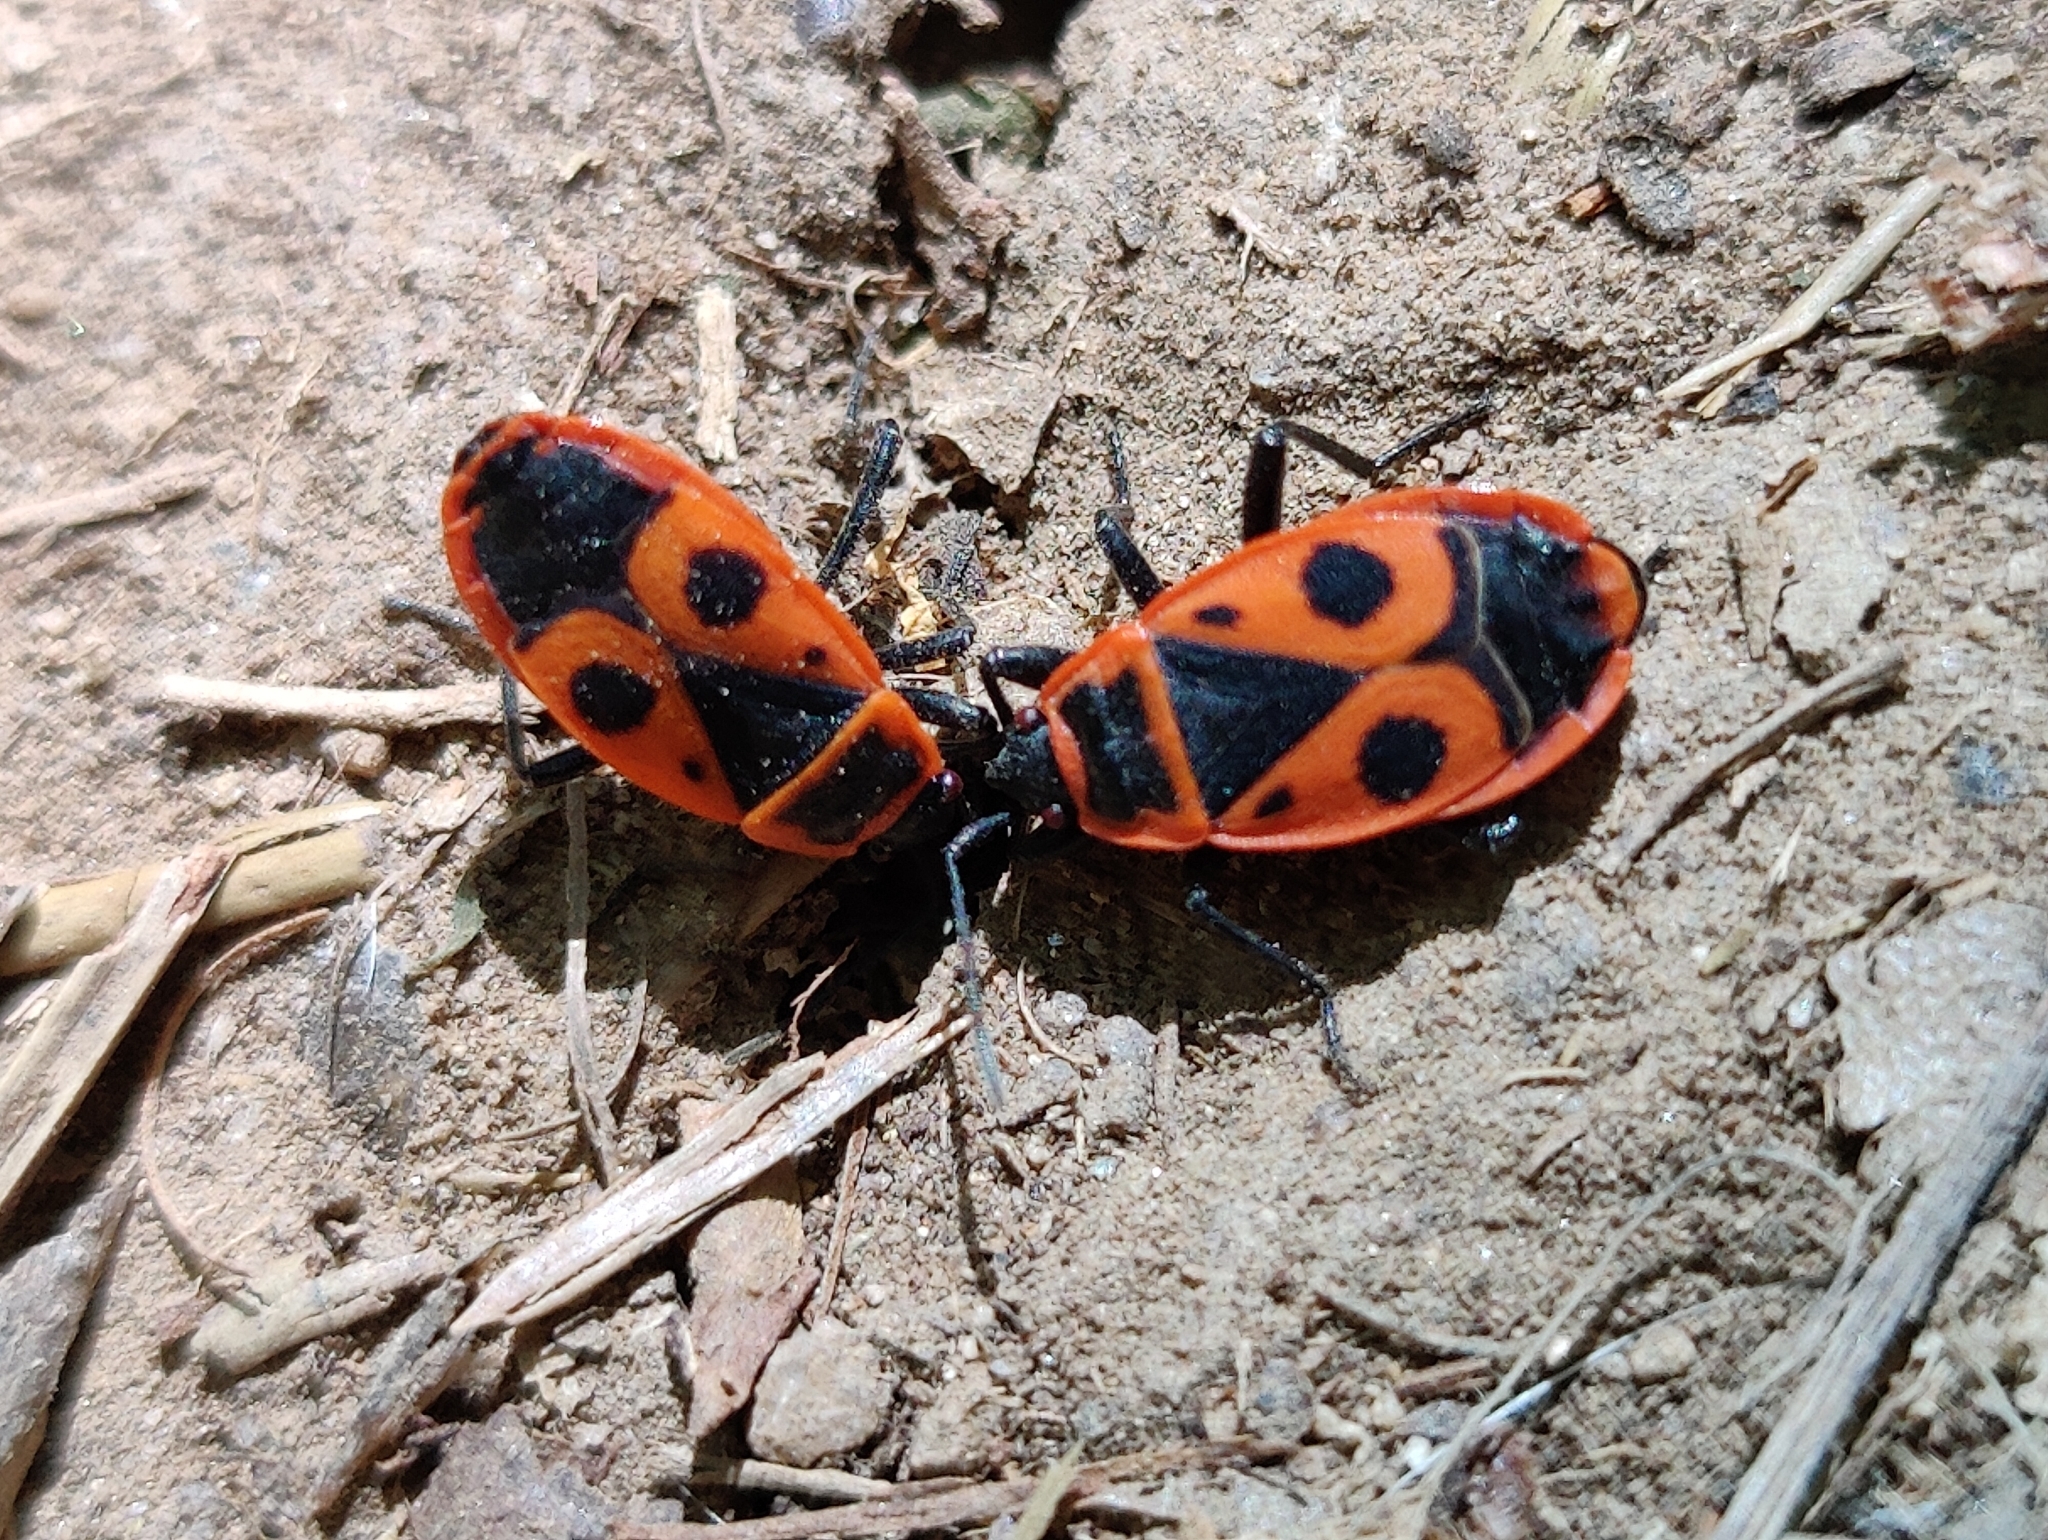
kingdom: Animalia
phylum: Arthropoda
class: Insecta
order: Hemiptera
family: Pyrrhocoridae
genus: Pyrrhocoris
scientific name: Pyrrhocoris apterus
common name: Firebug
